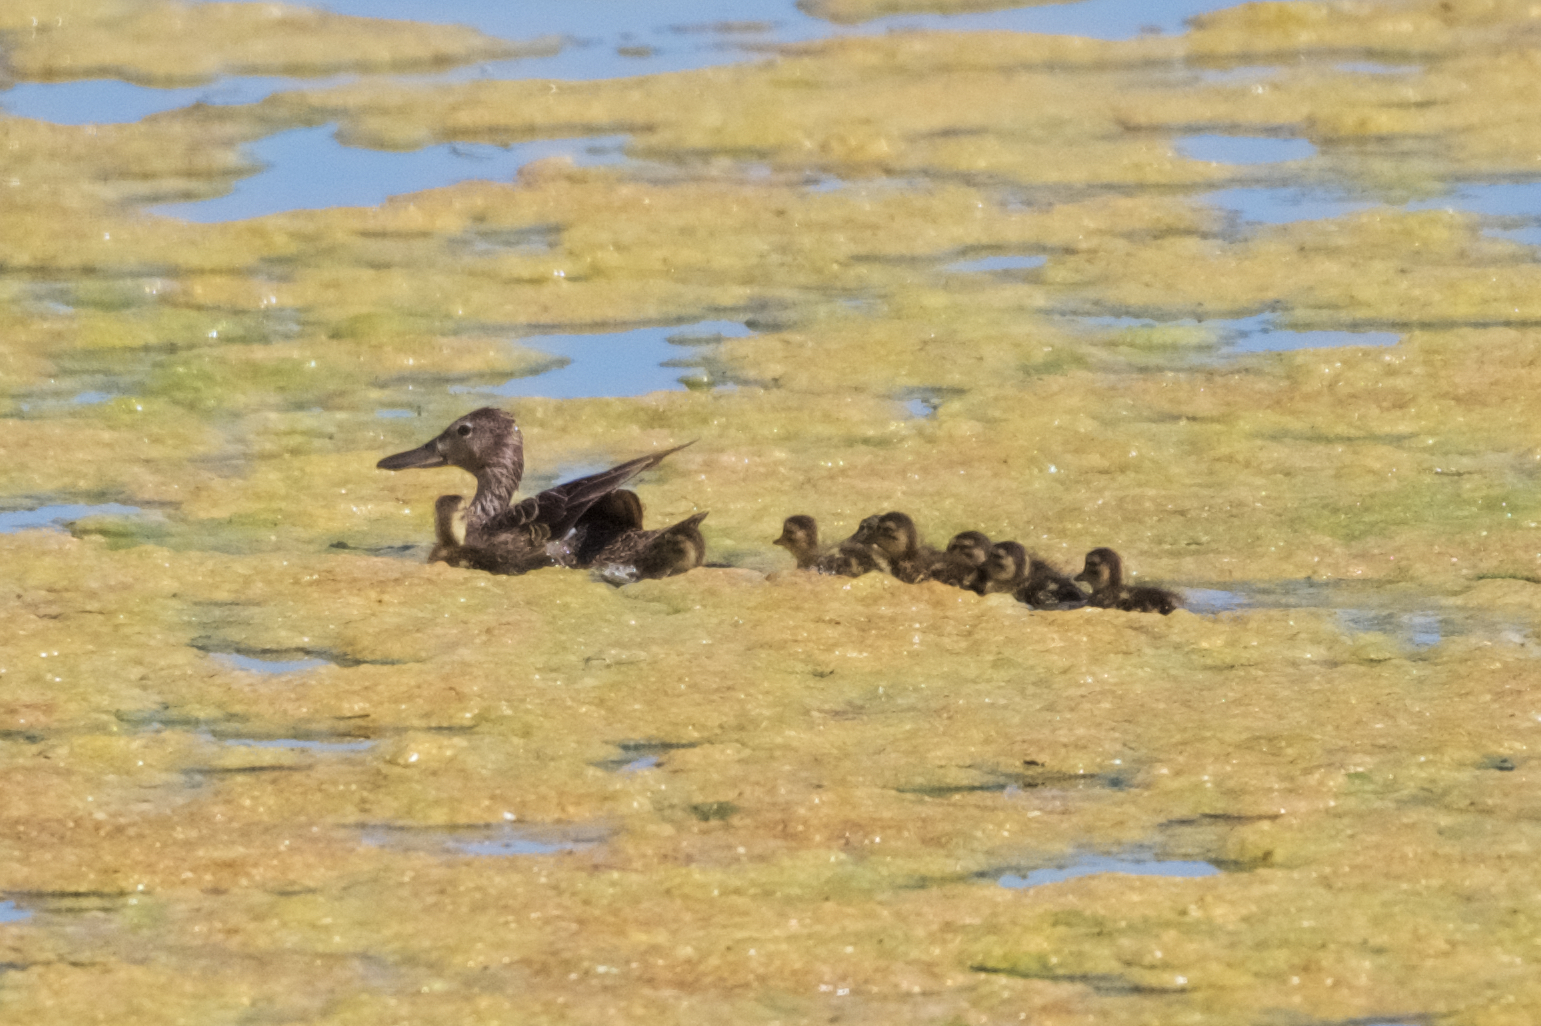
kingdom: Animalia
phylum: Chordata
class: Aves
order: Anseriformes
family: Anatidae
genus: Spatula
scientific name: Spatula clypeata
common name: Northern shoveler
